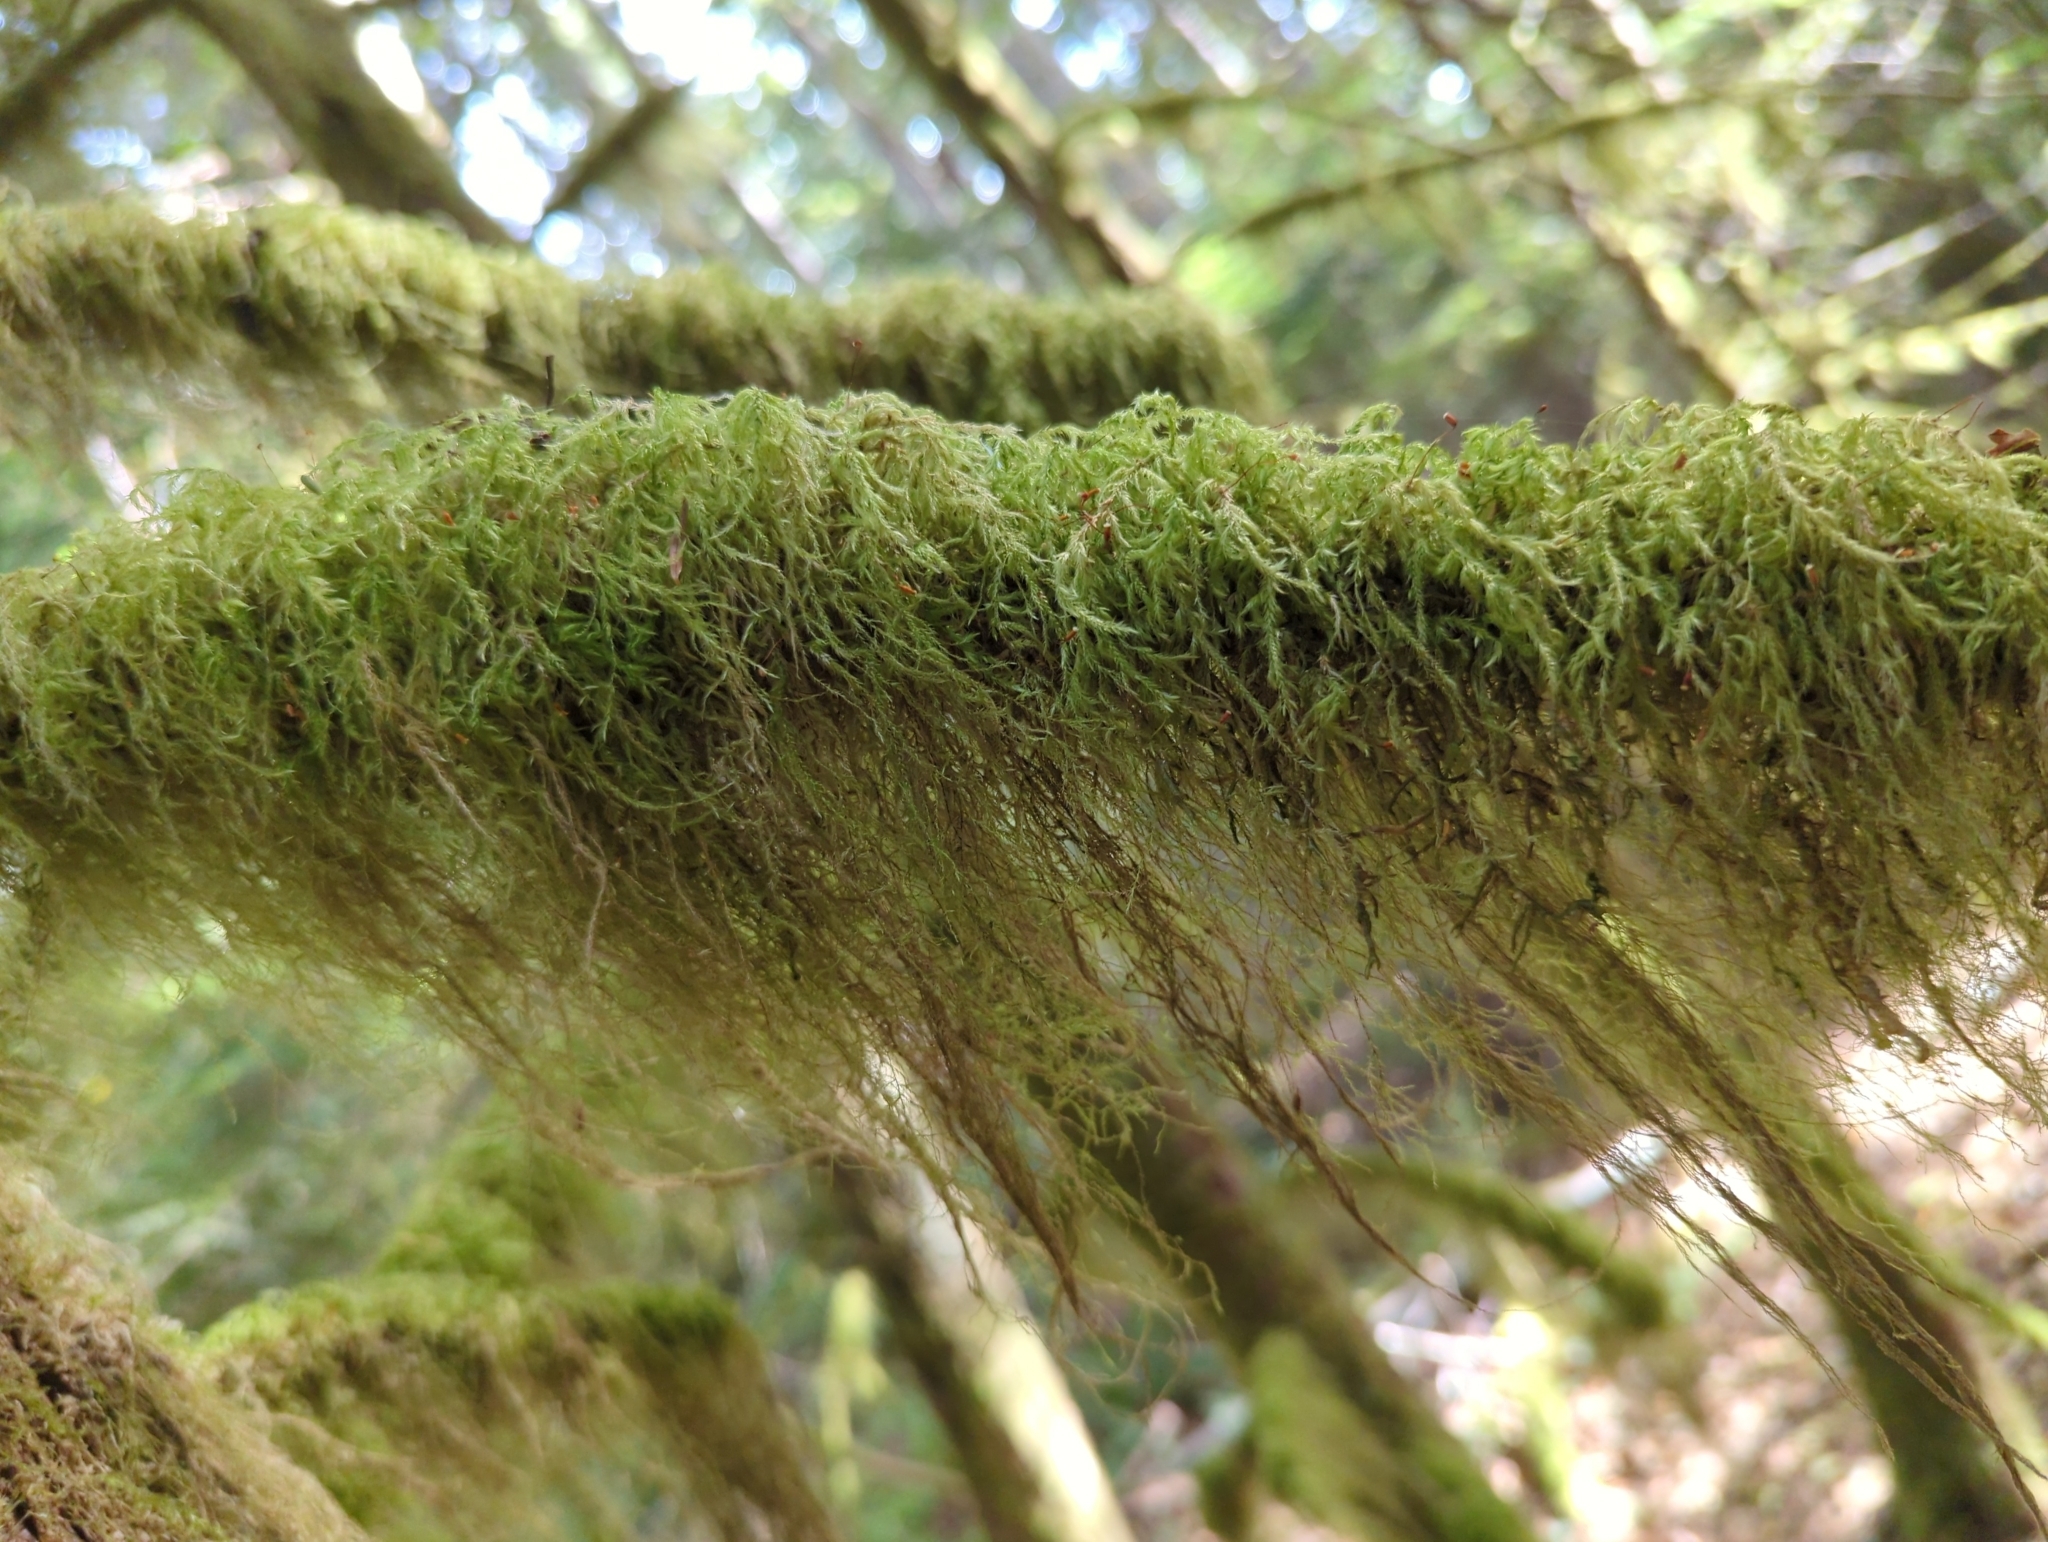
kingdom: Plantae
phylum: Bryophyta
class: Bryopsida
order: Hypnales
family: Lembophyllaceae
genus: Pseudisothecium
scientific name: Pseudisothecium stoloniferum
